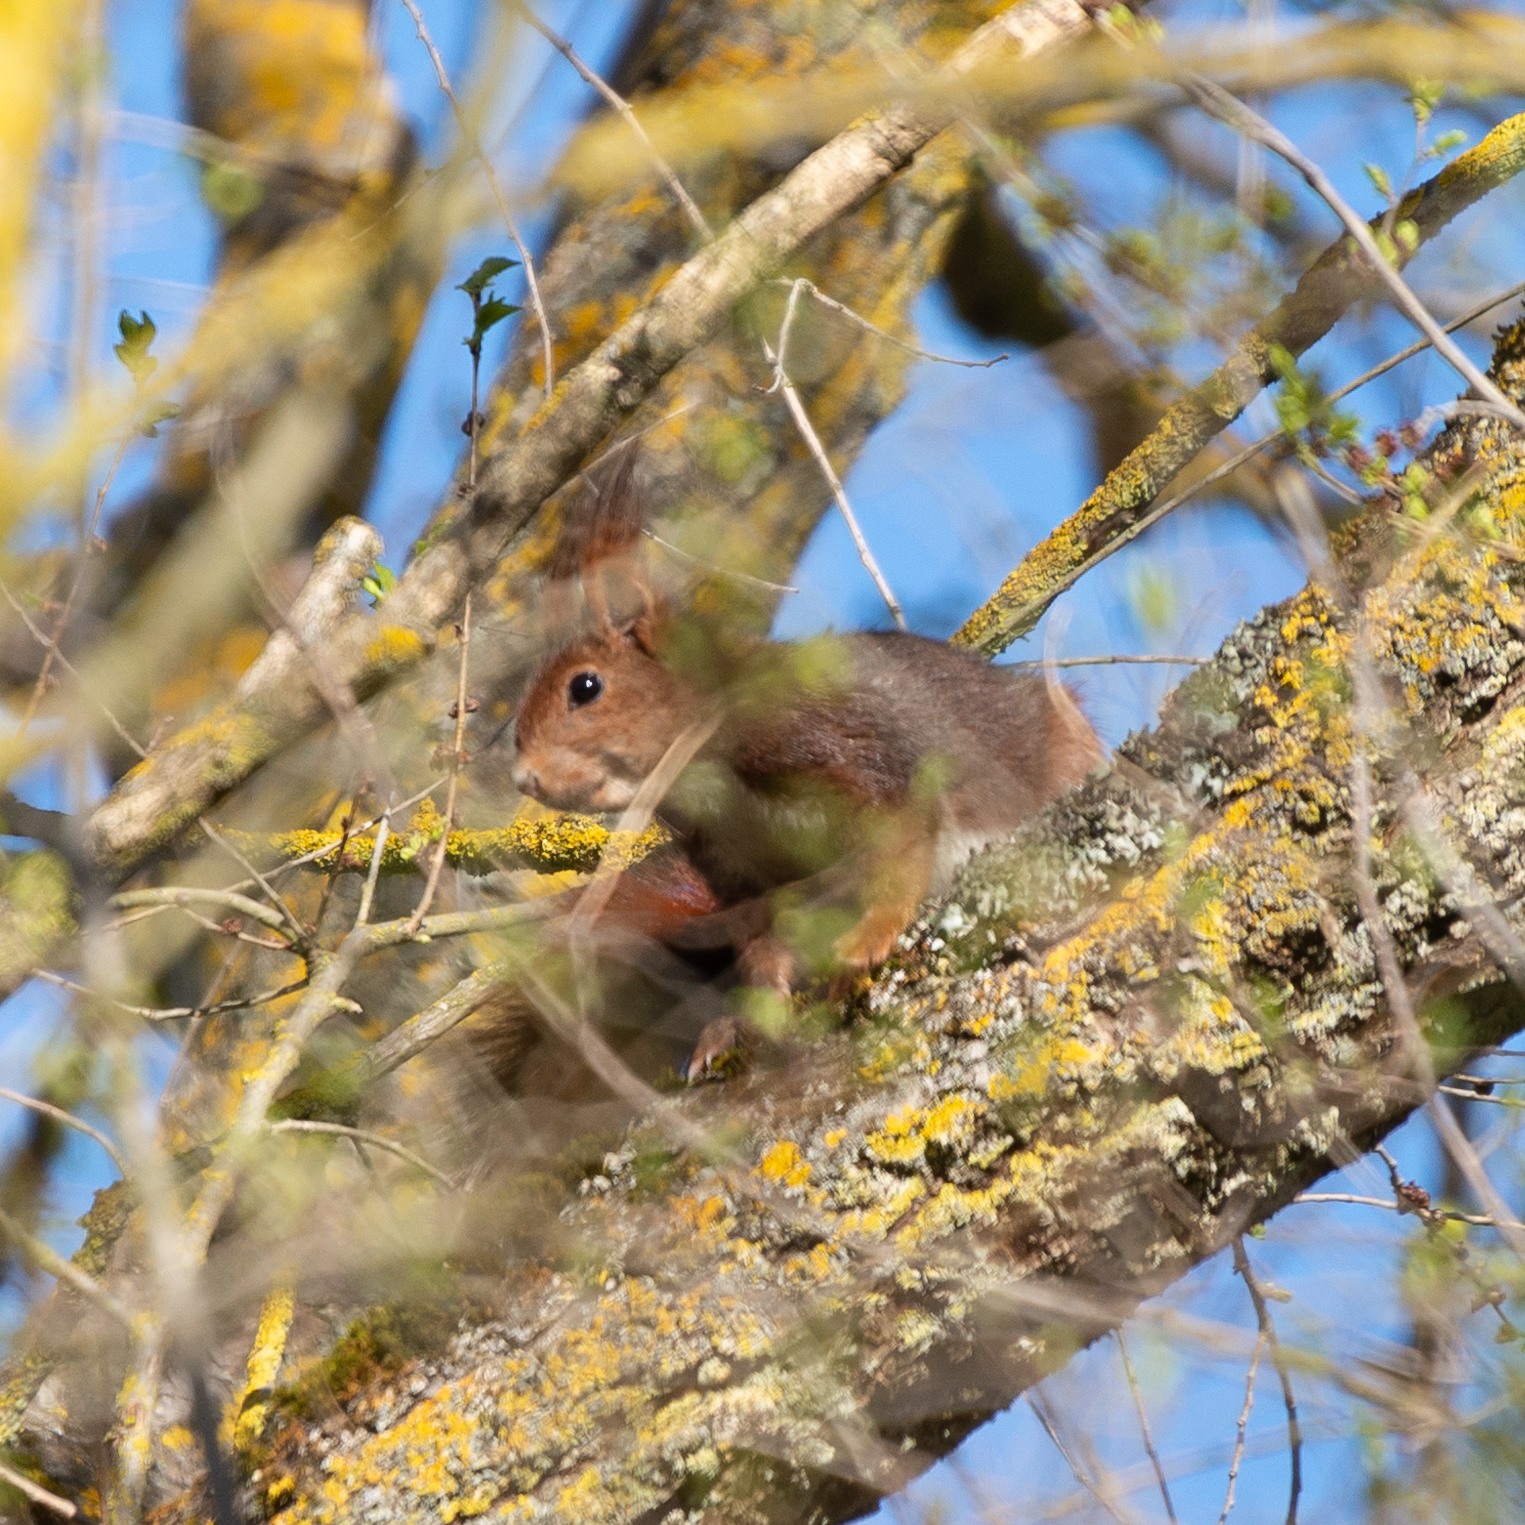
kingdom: Animalia
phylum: Chordata
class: Mammalia
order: Rodentia
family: Sciuridae
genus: Sciurus
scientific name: Sciurus vulgaris
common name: Eurasian red squirrel
